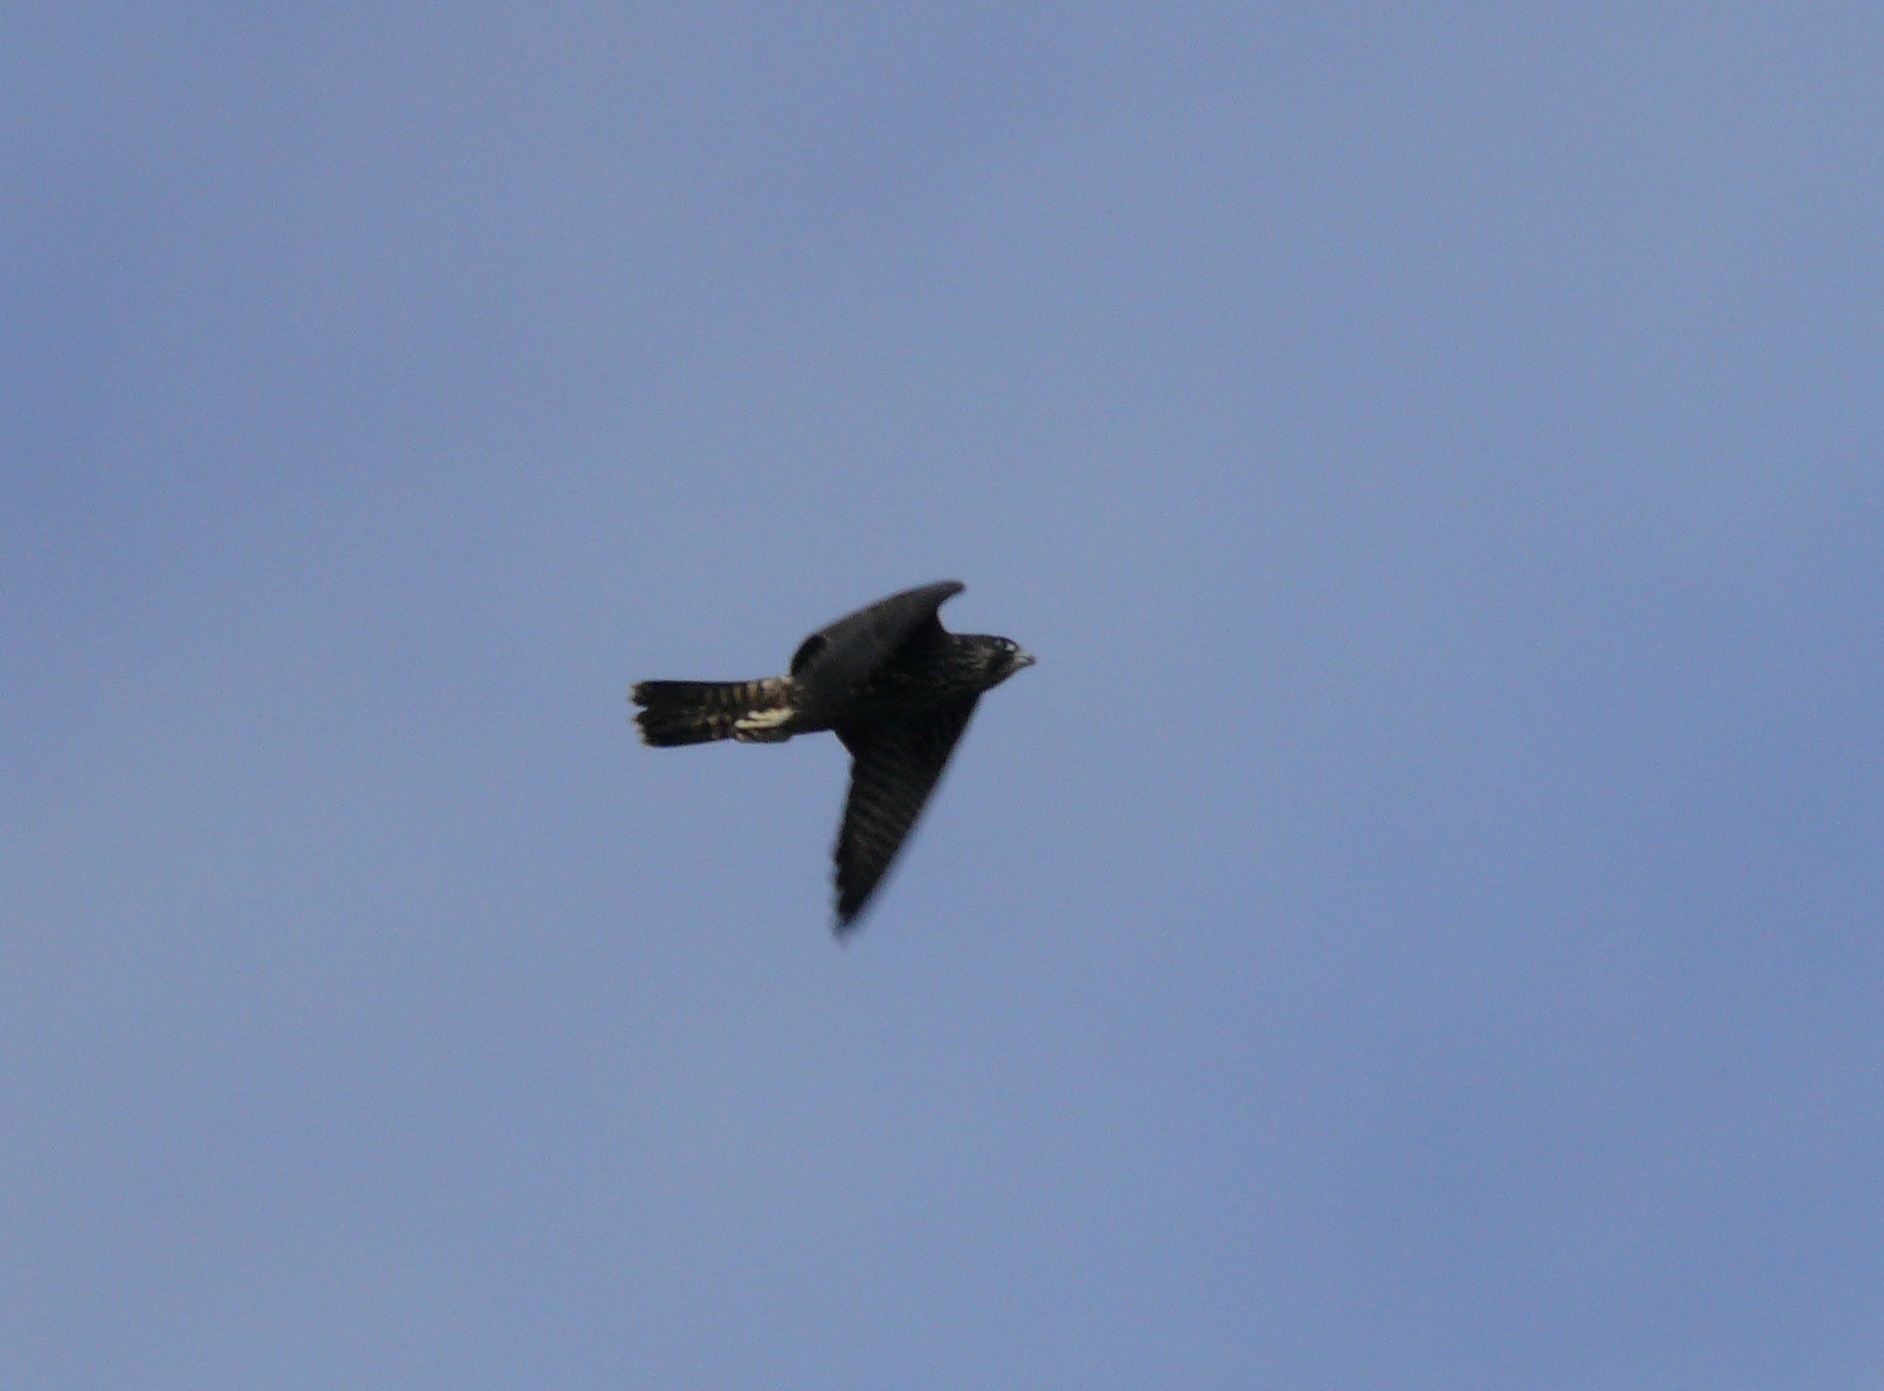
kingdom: Animalia
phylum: Chordata
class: Aves
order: Falconiformes
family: Falconidae
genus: Falco
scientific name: Falco peregrinus
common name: Peregrine falcon
